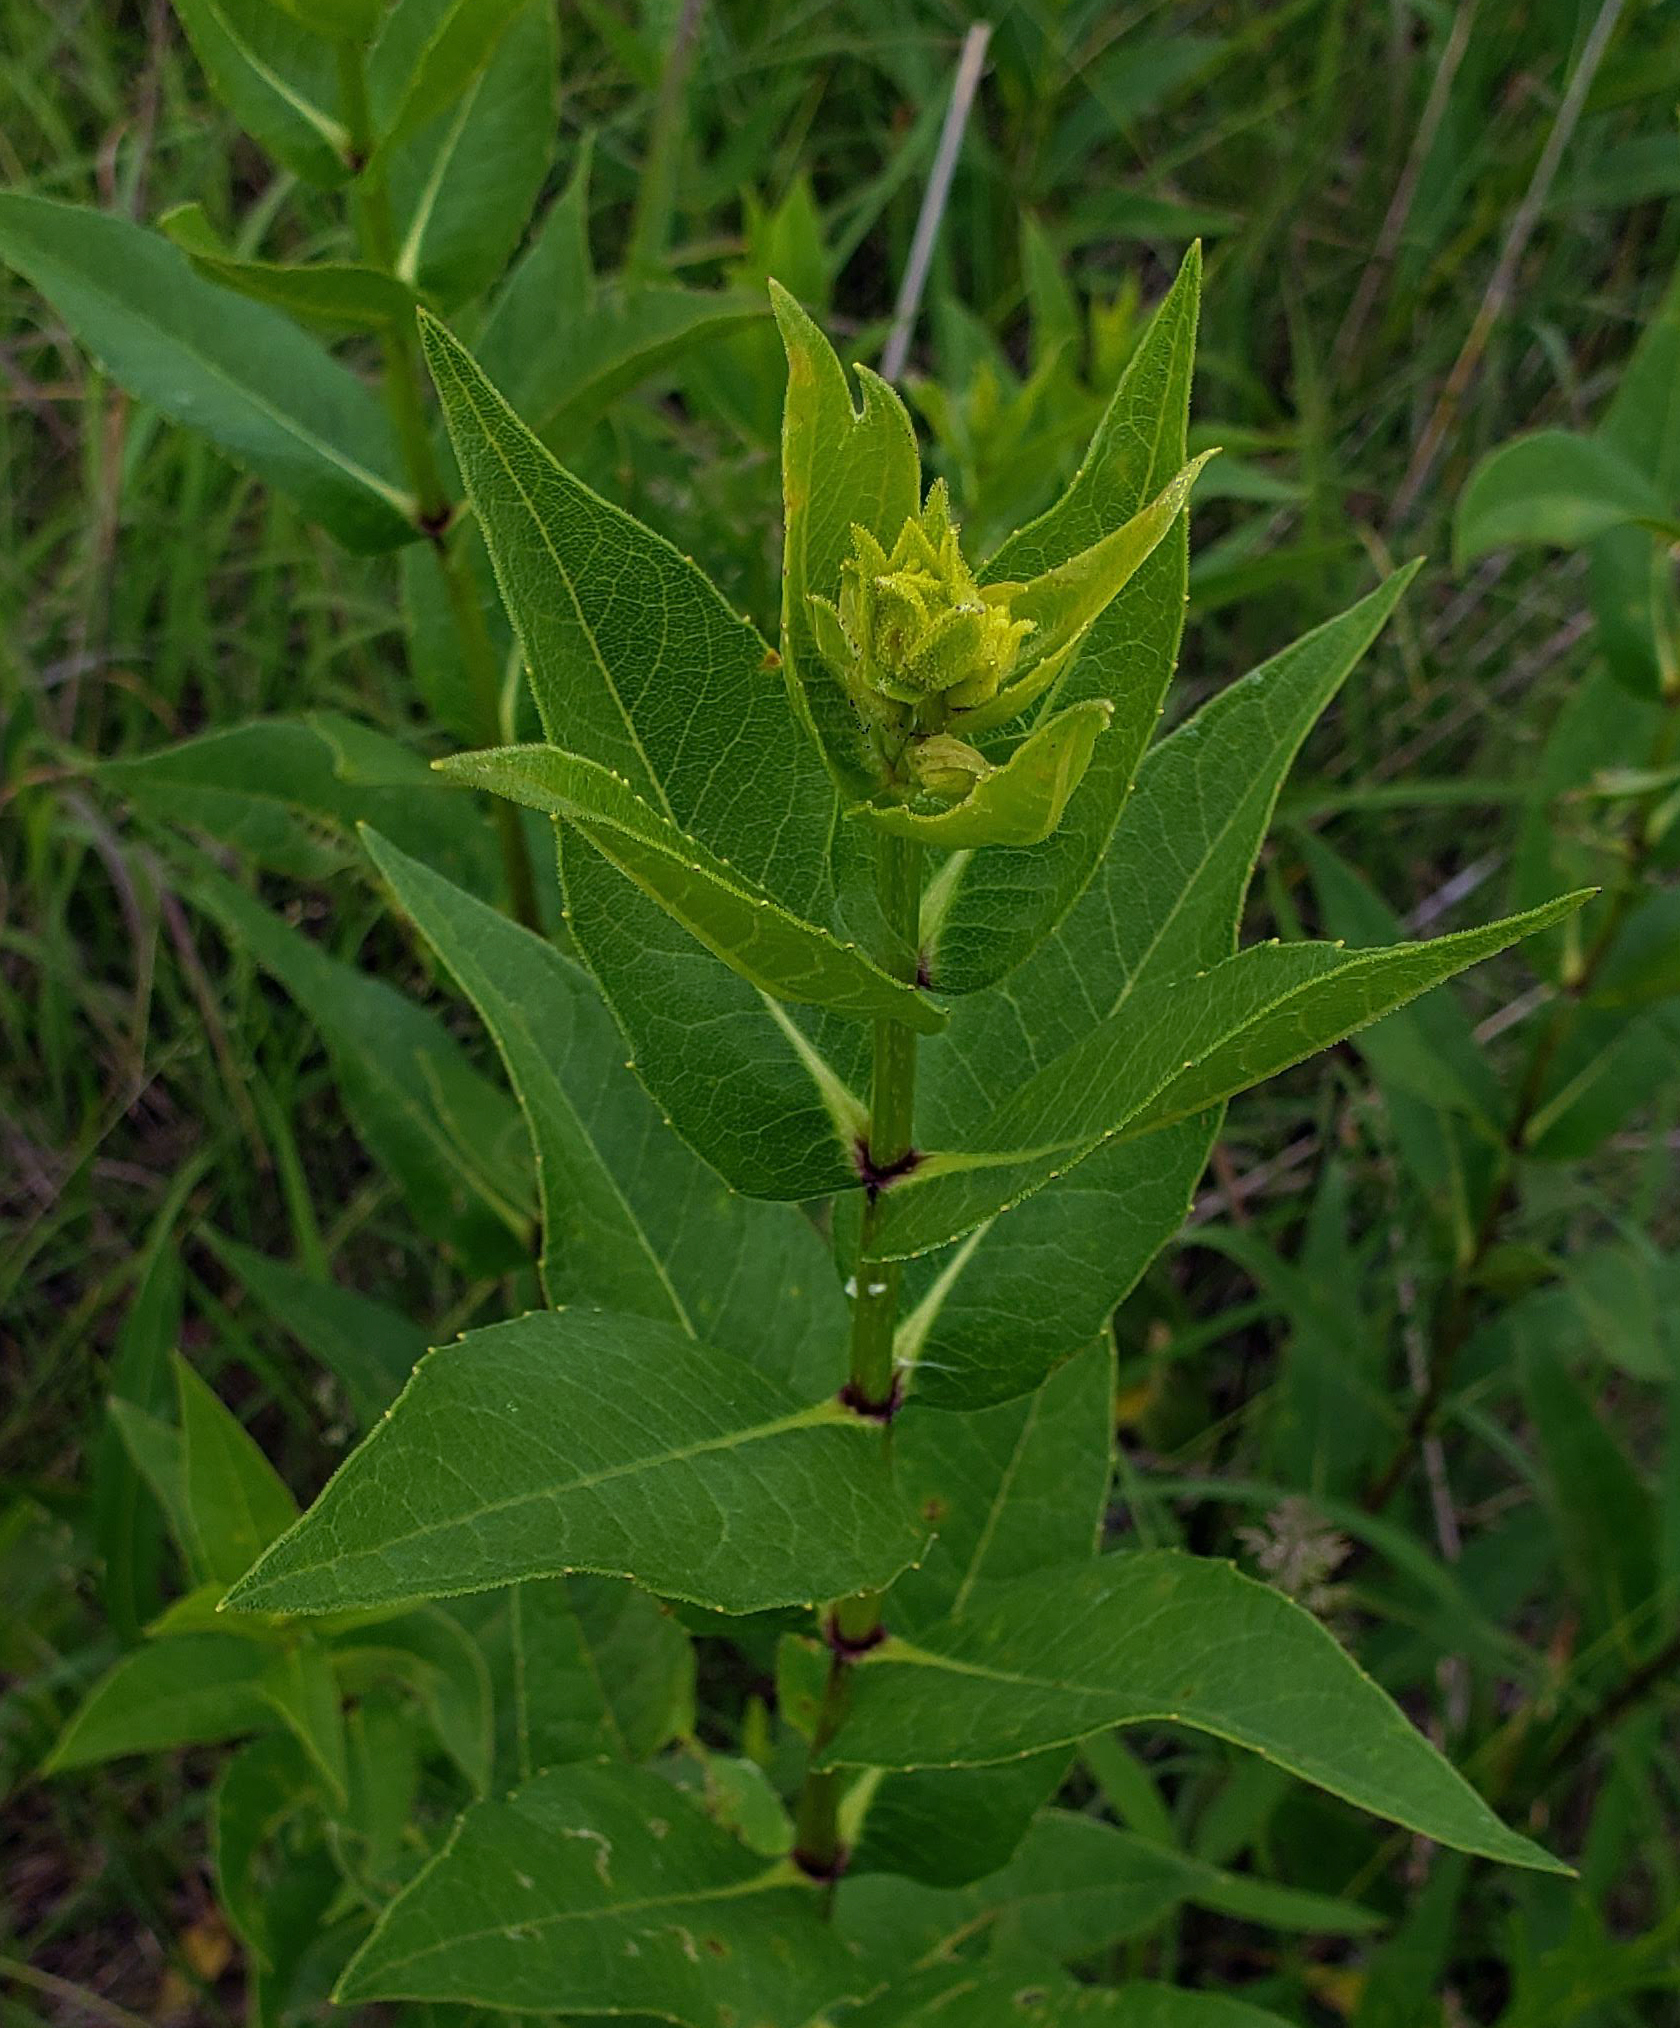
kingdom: Plantae
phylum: Tracheophyta
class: Magnoliopsida
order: Asterales
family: Asteraceae
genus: Silphium
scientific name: Silphium integrifolium
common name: Whole-leaf rosinweed
